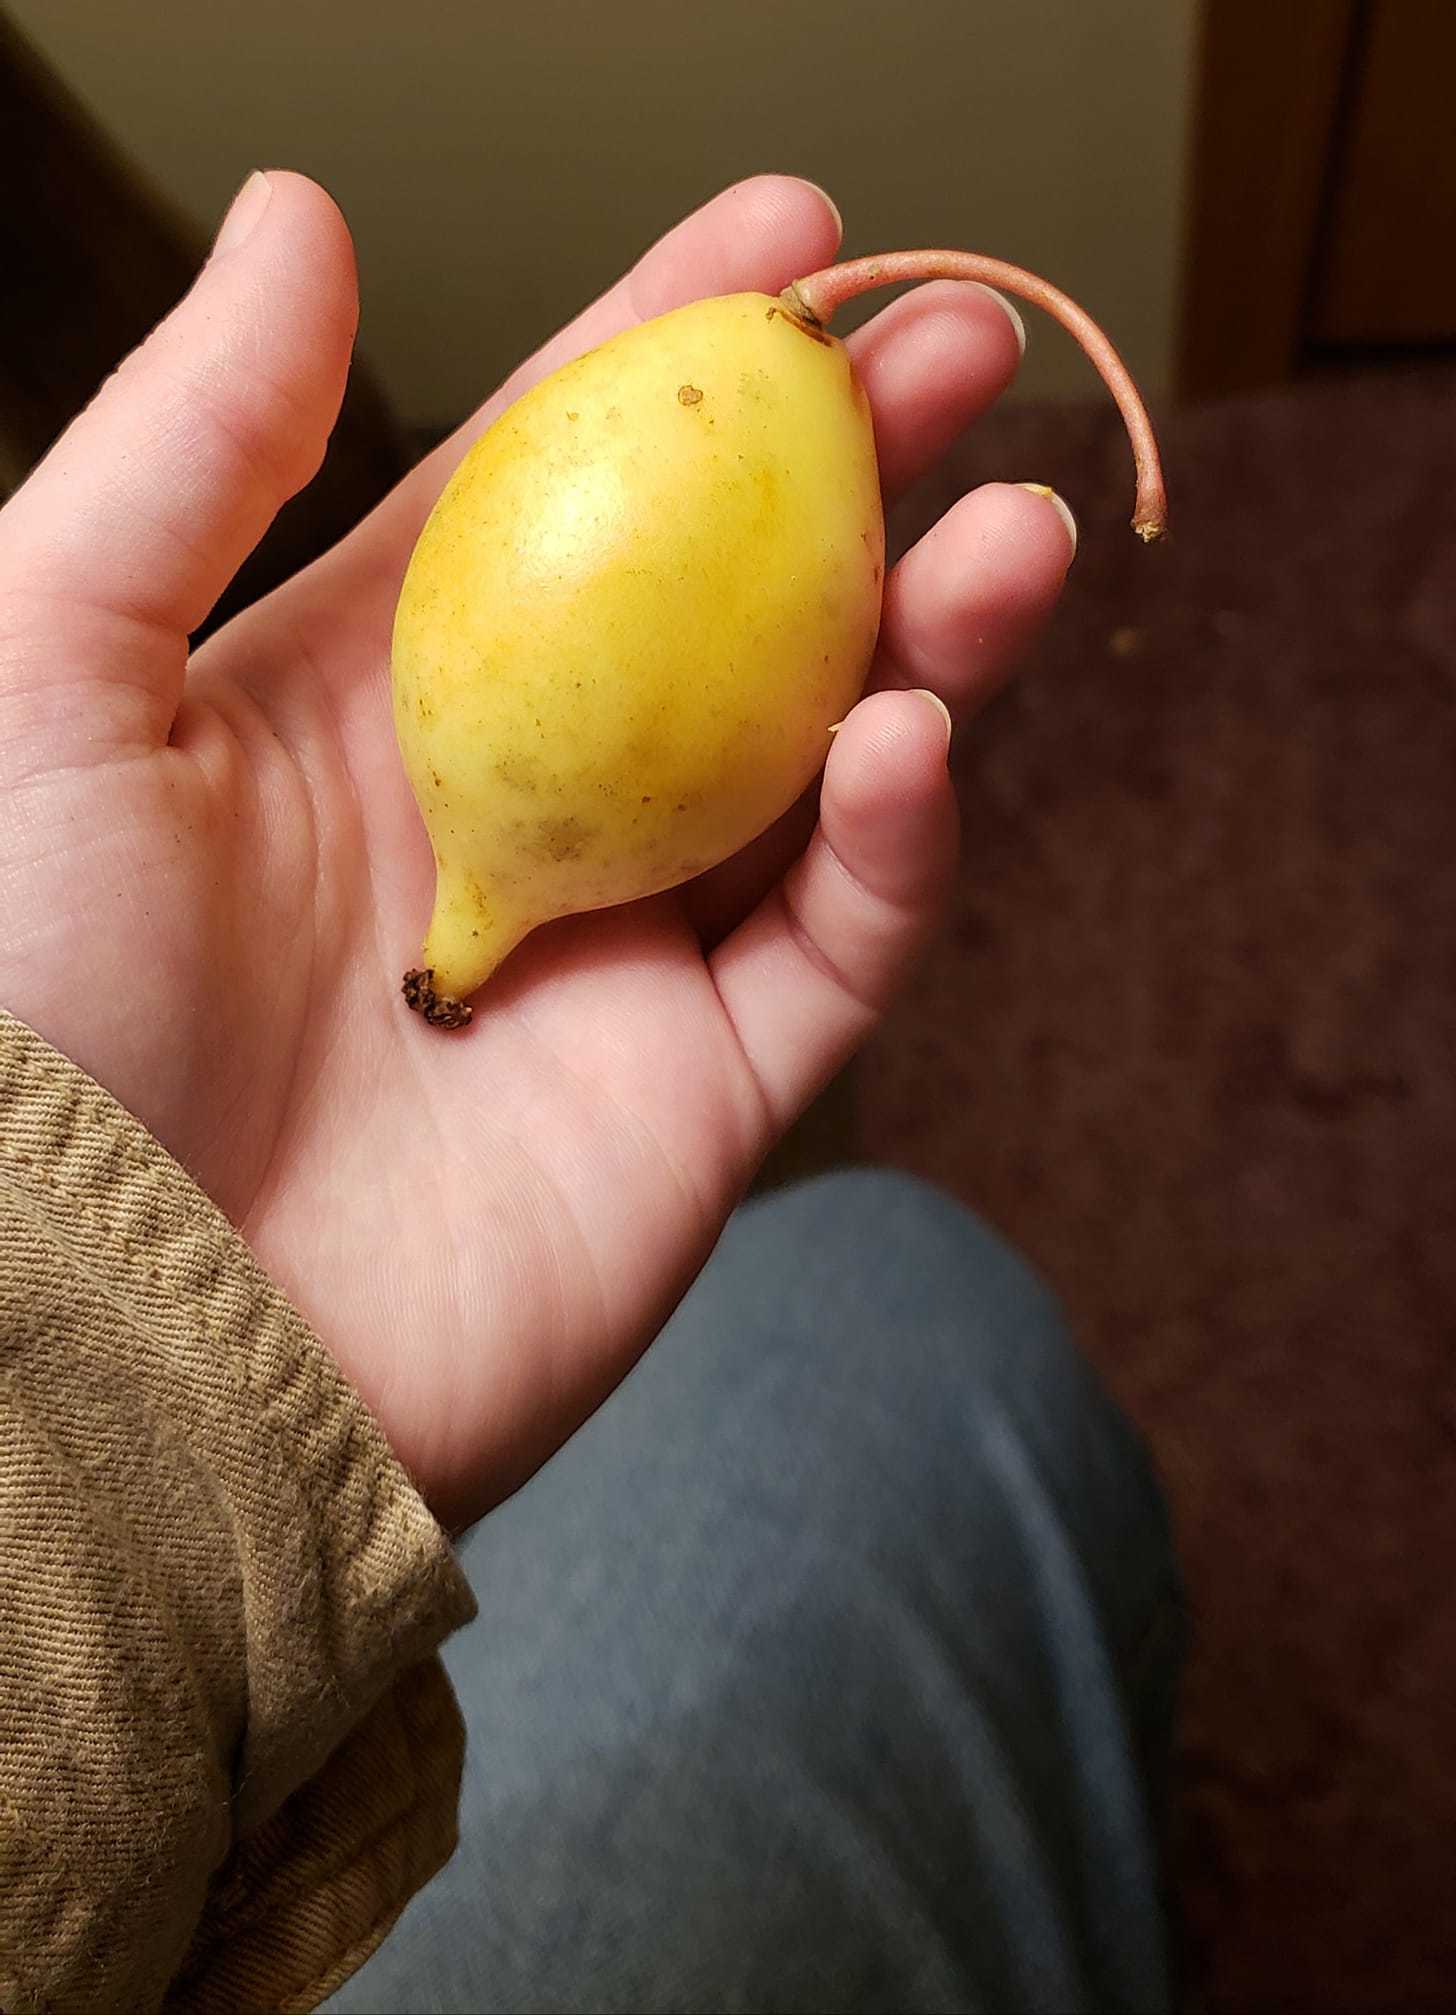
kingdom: Plantae
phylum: Tracheophyta
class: Magnoliopsida
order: Ranunculales
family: Berberidaceae
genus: Podophyllum
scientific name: Podophyllum peltatum
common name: Wild mandrake
